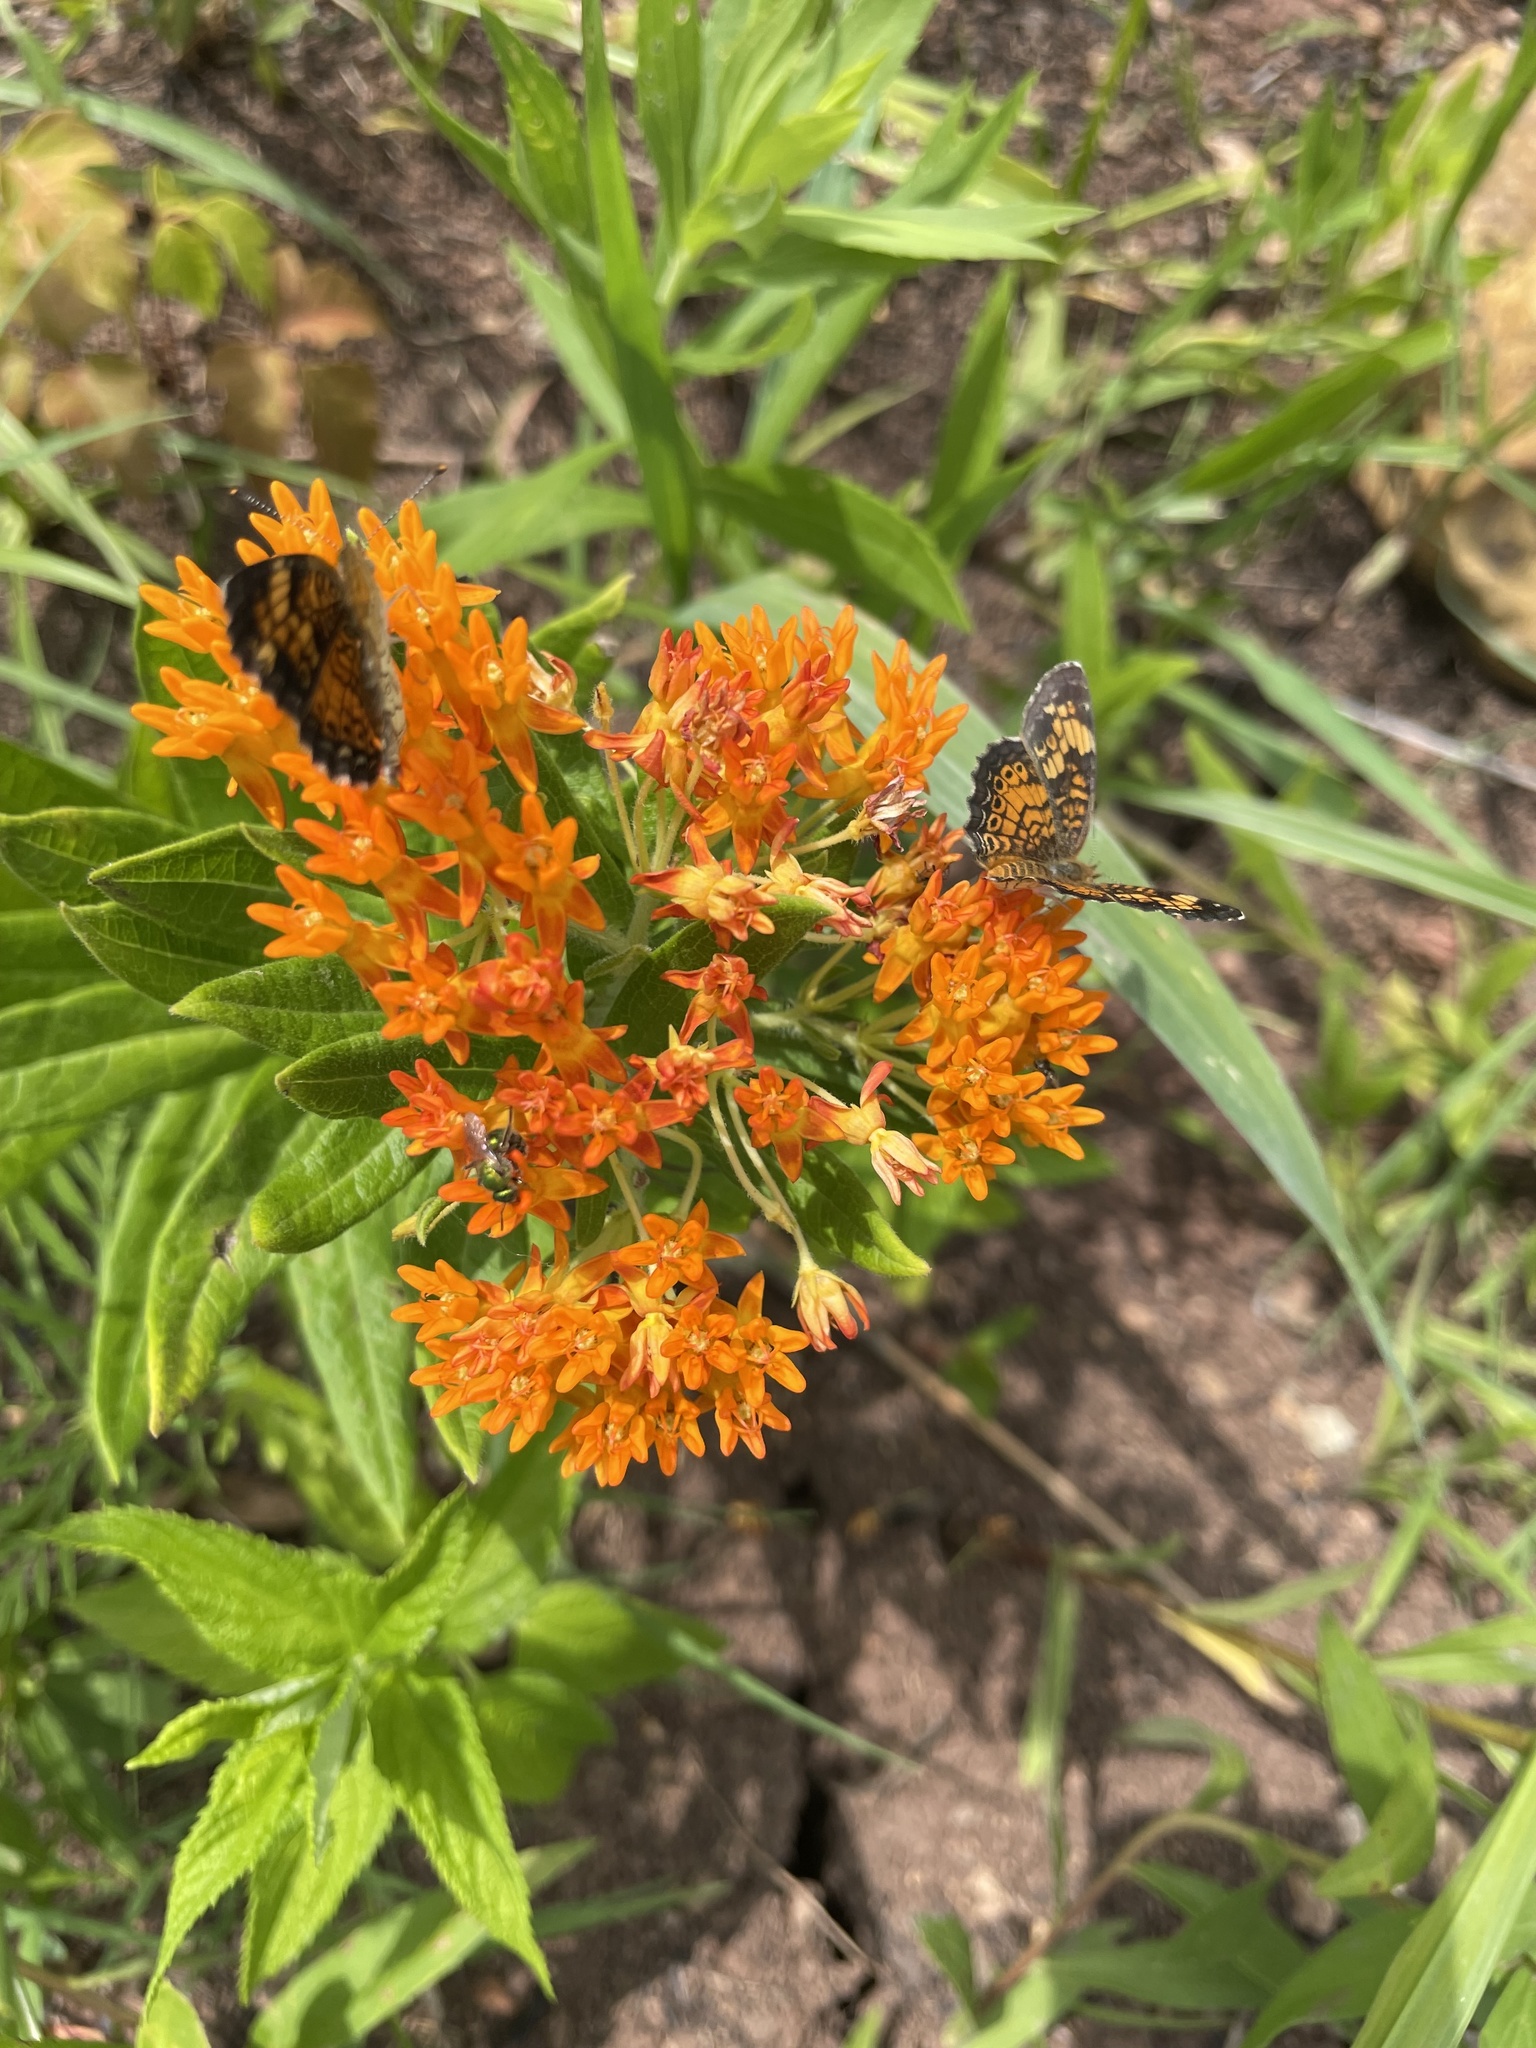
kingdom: Animalia
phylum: Arthropoda
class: Insecta
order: Lepidoptera
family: Nymphalidae
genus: Phyciodes
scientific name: Phyciodes tharos
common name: Pearl crescent
